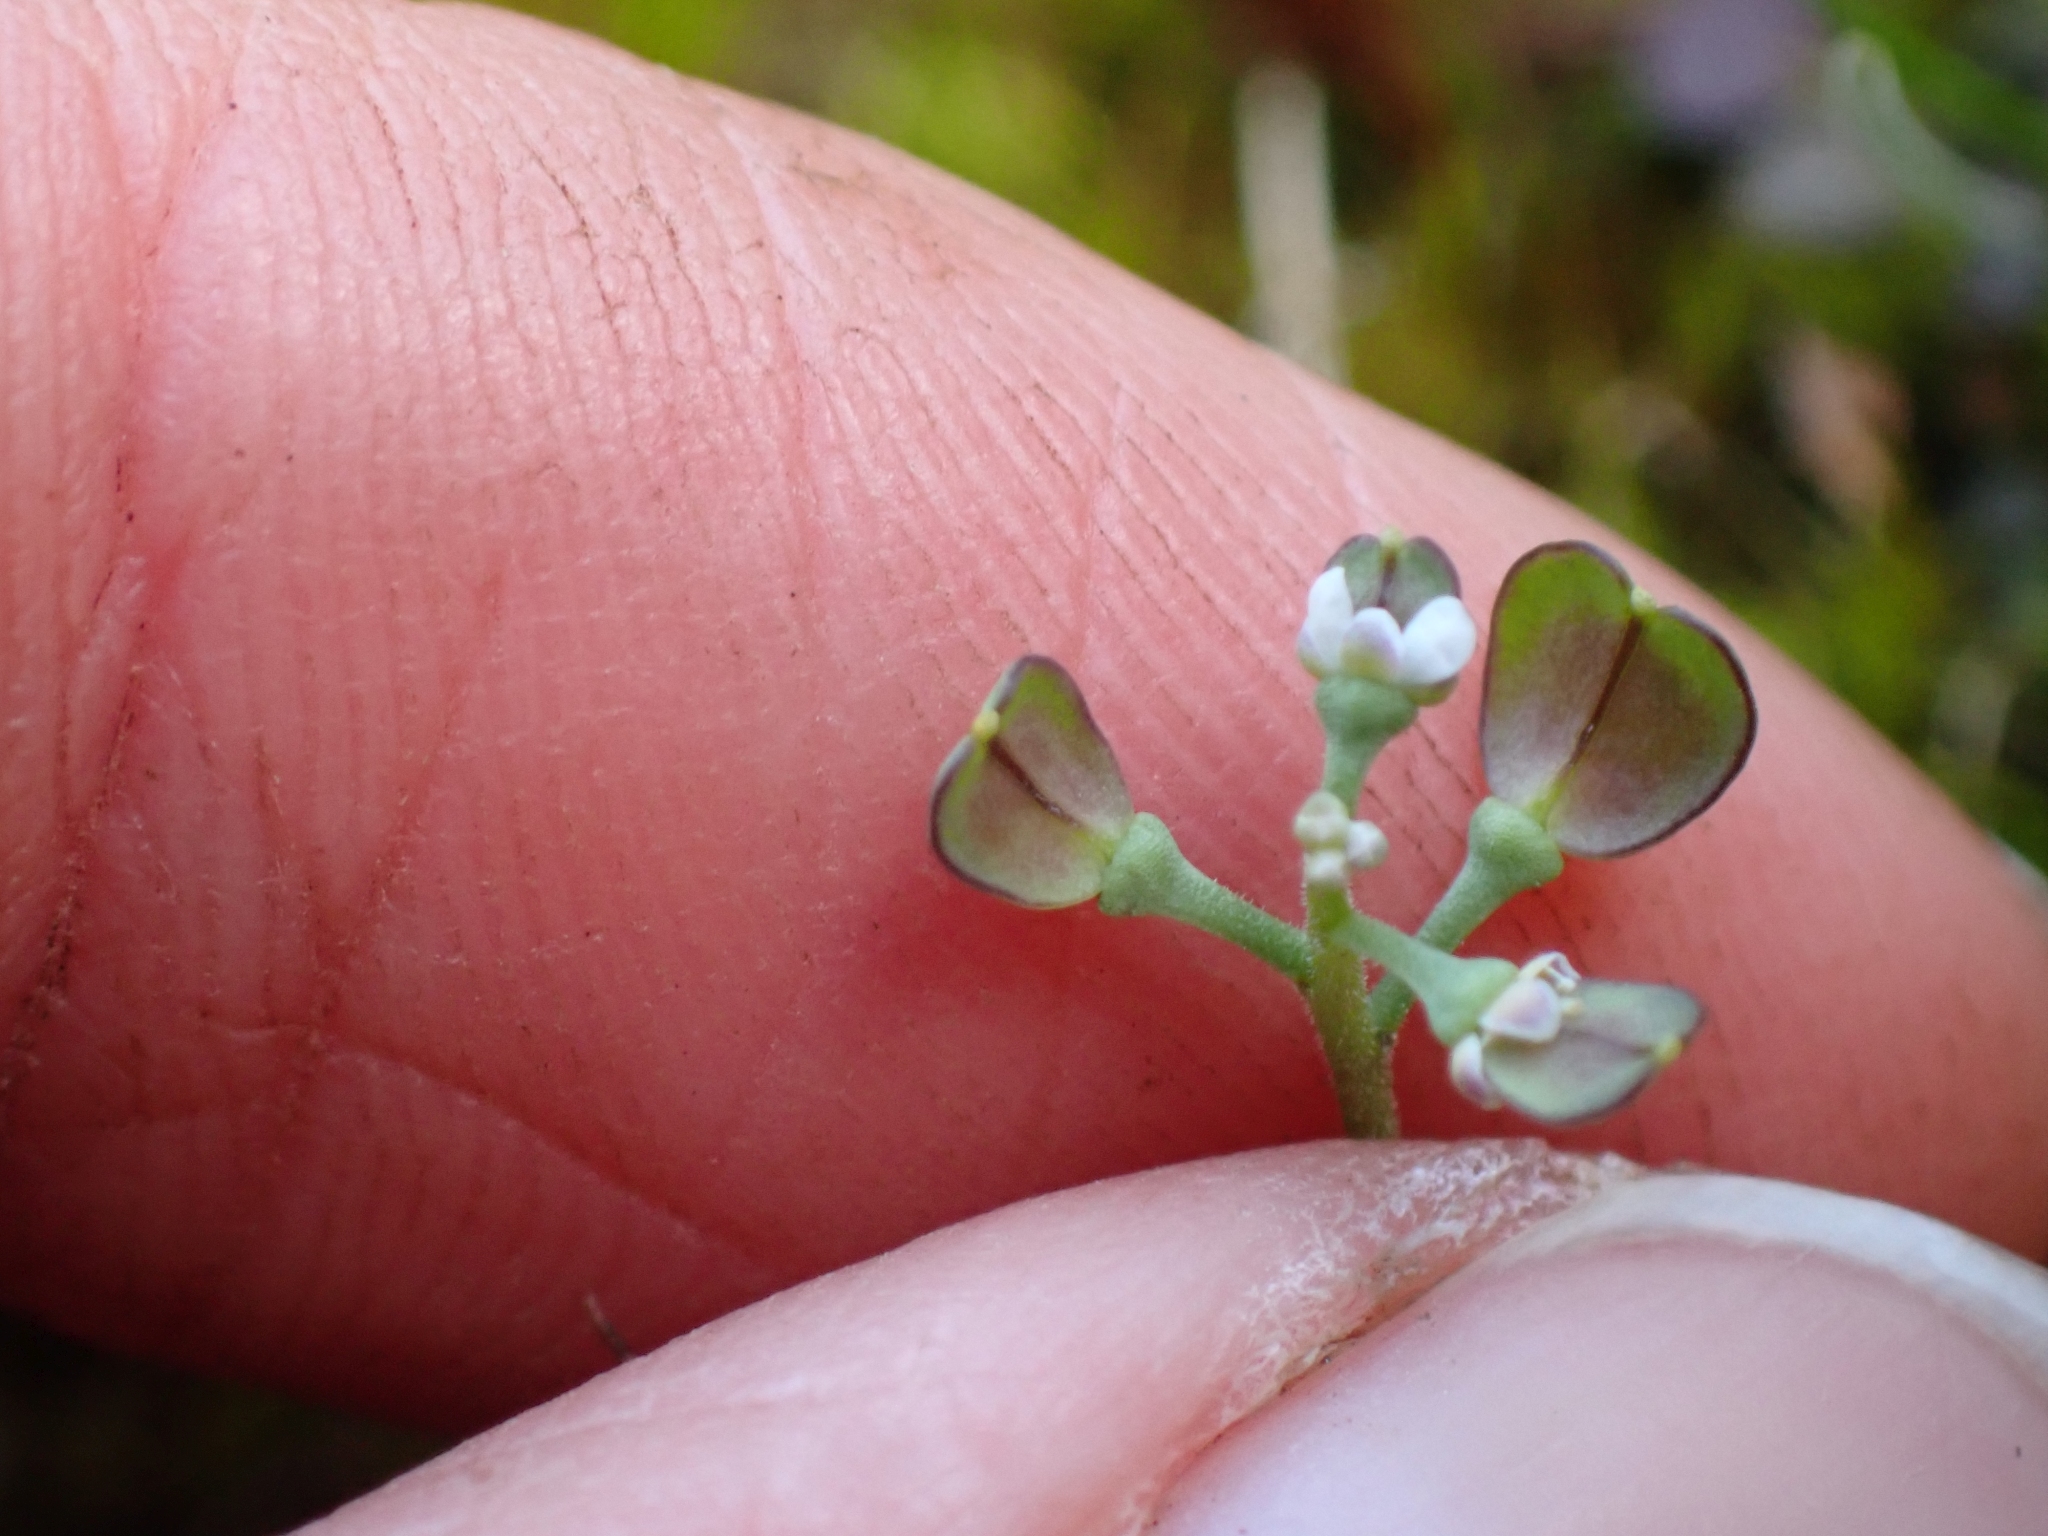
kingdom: Plantae
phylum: Tracheophyta
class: Magnoliopsida
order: Brassicales
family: Brassicaceae
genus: Teesdalia
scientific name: Teesdalia nudicaulis
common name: Shepherd's cress
